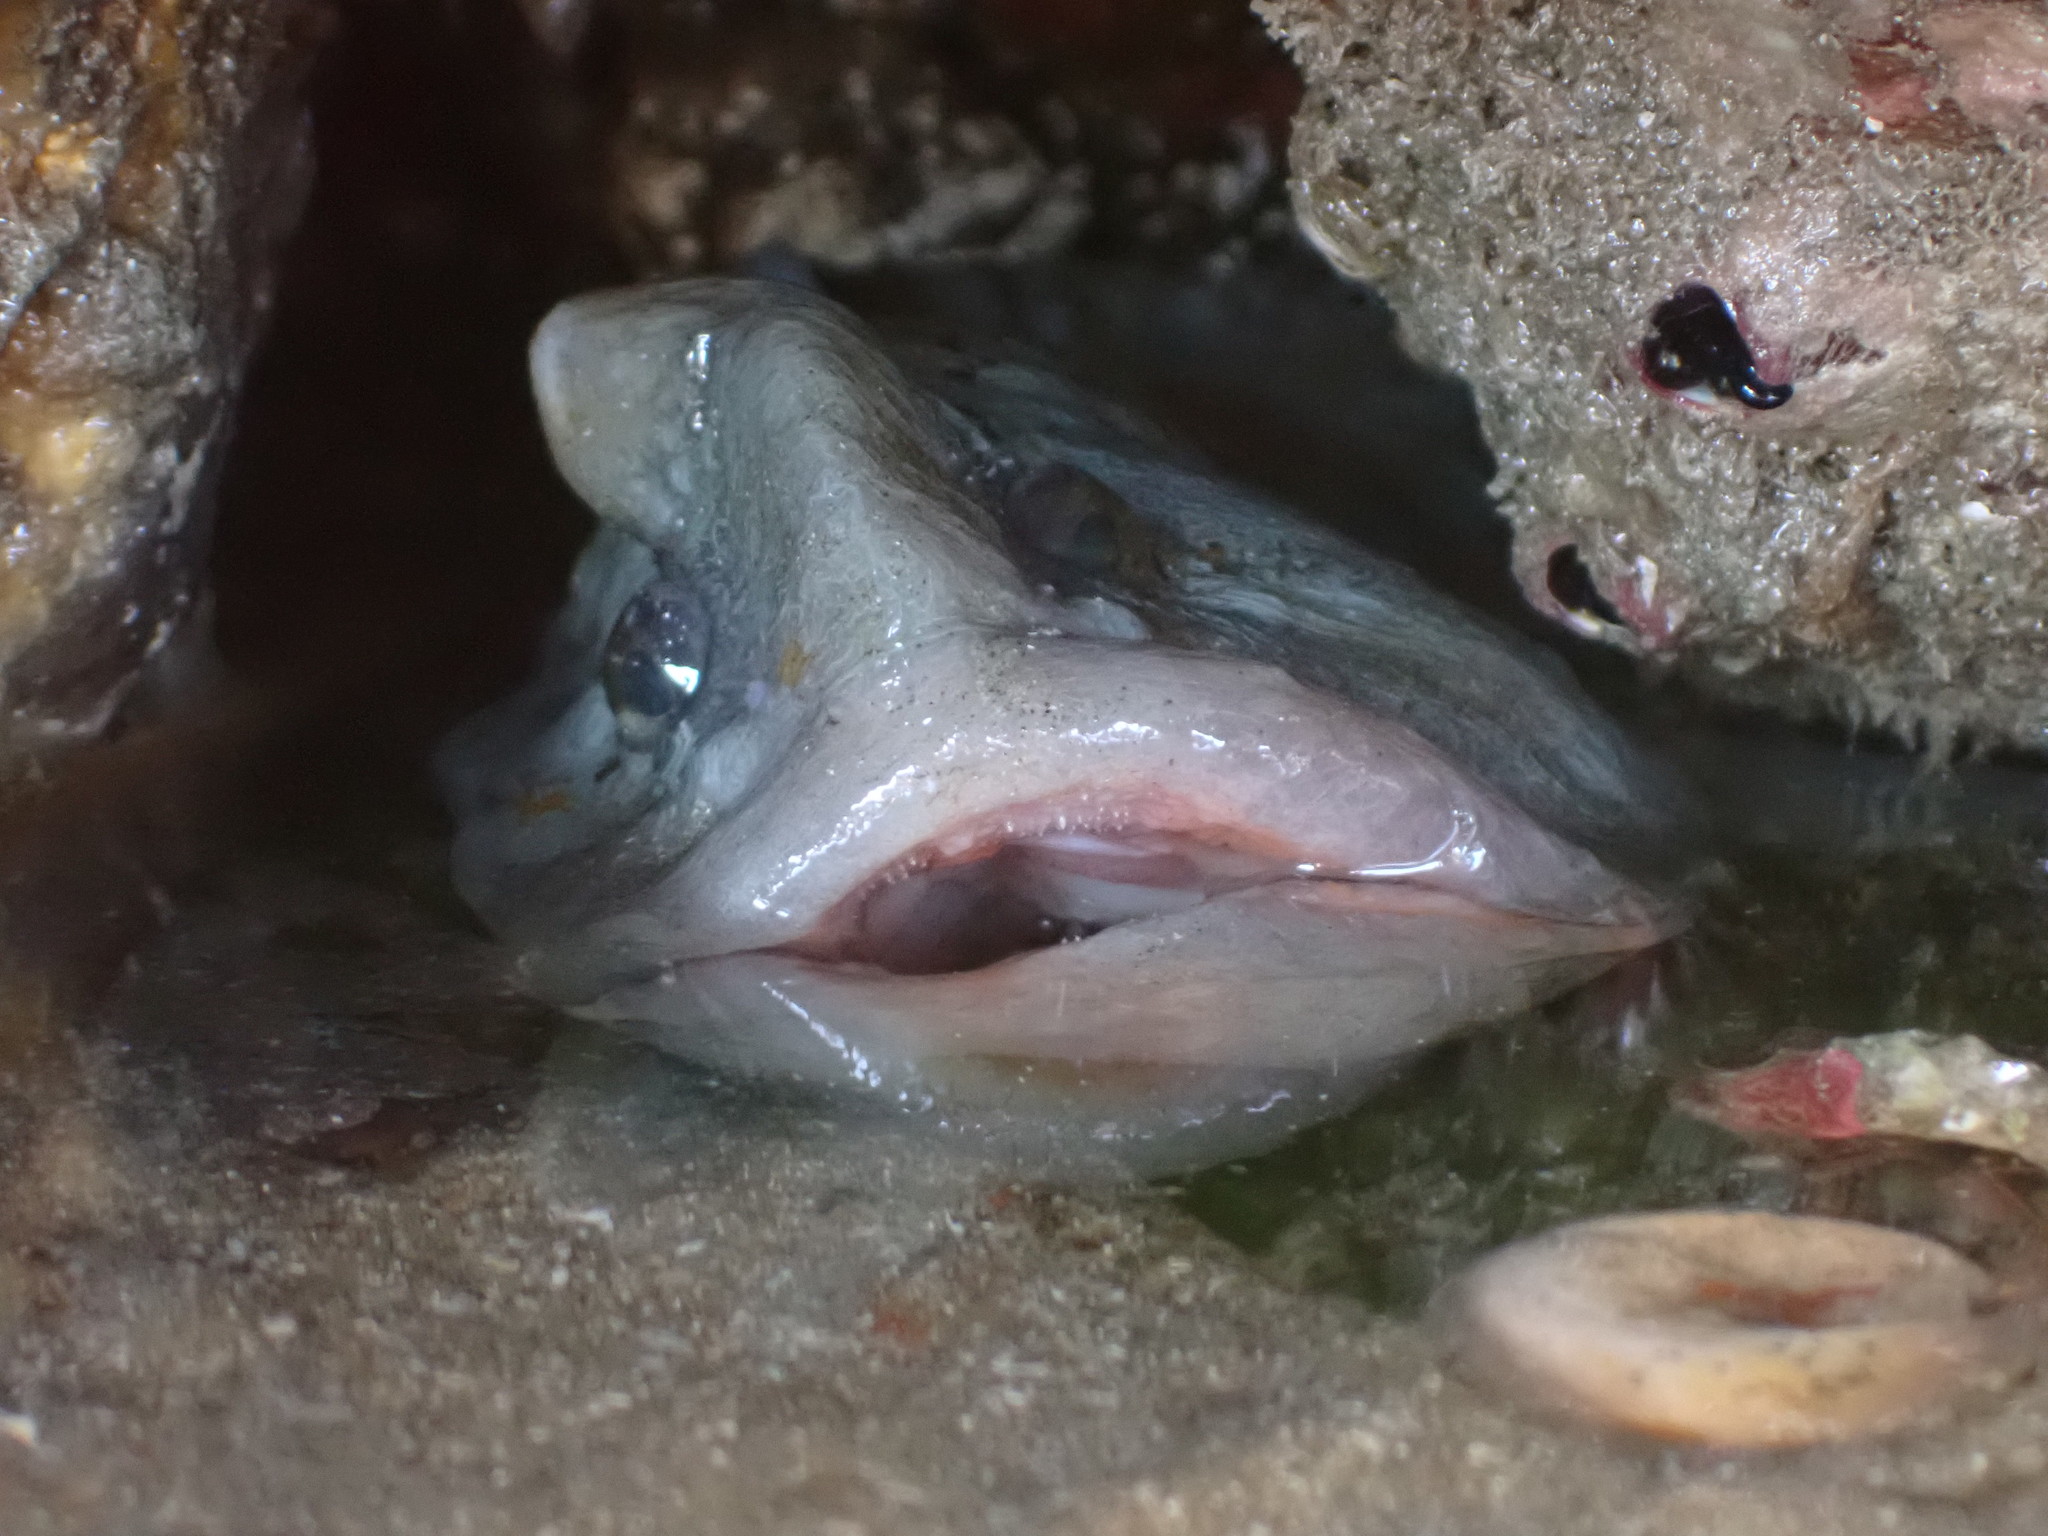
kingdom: Animalia
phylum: Chordata
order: Perciformes
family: Stichaeidae
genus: Cebidichthys
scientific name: Cebidichthys violaceus
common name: Monkeyface prickleback
